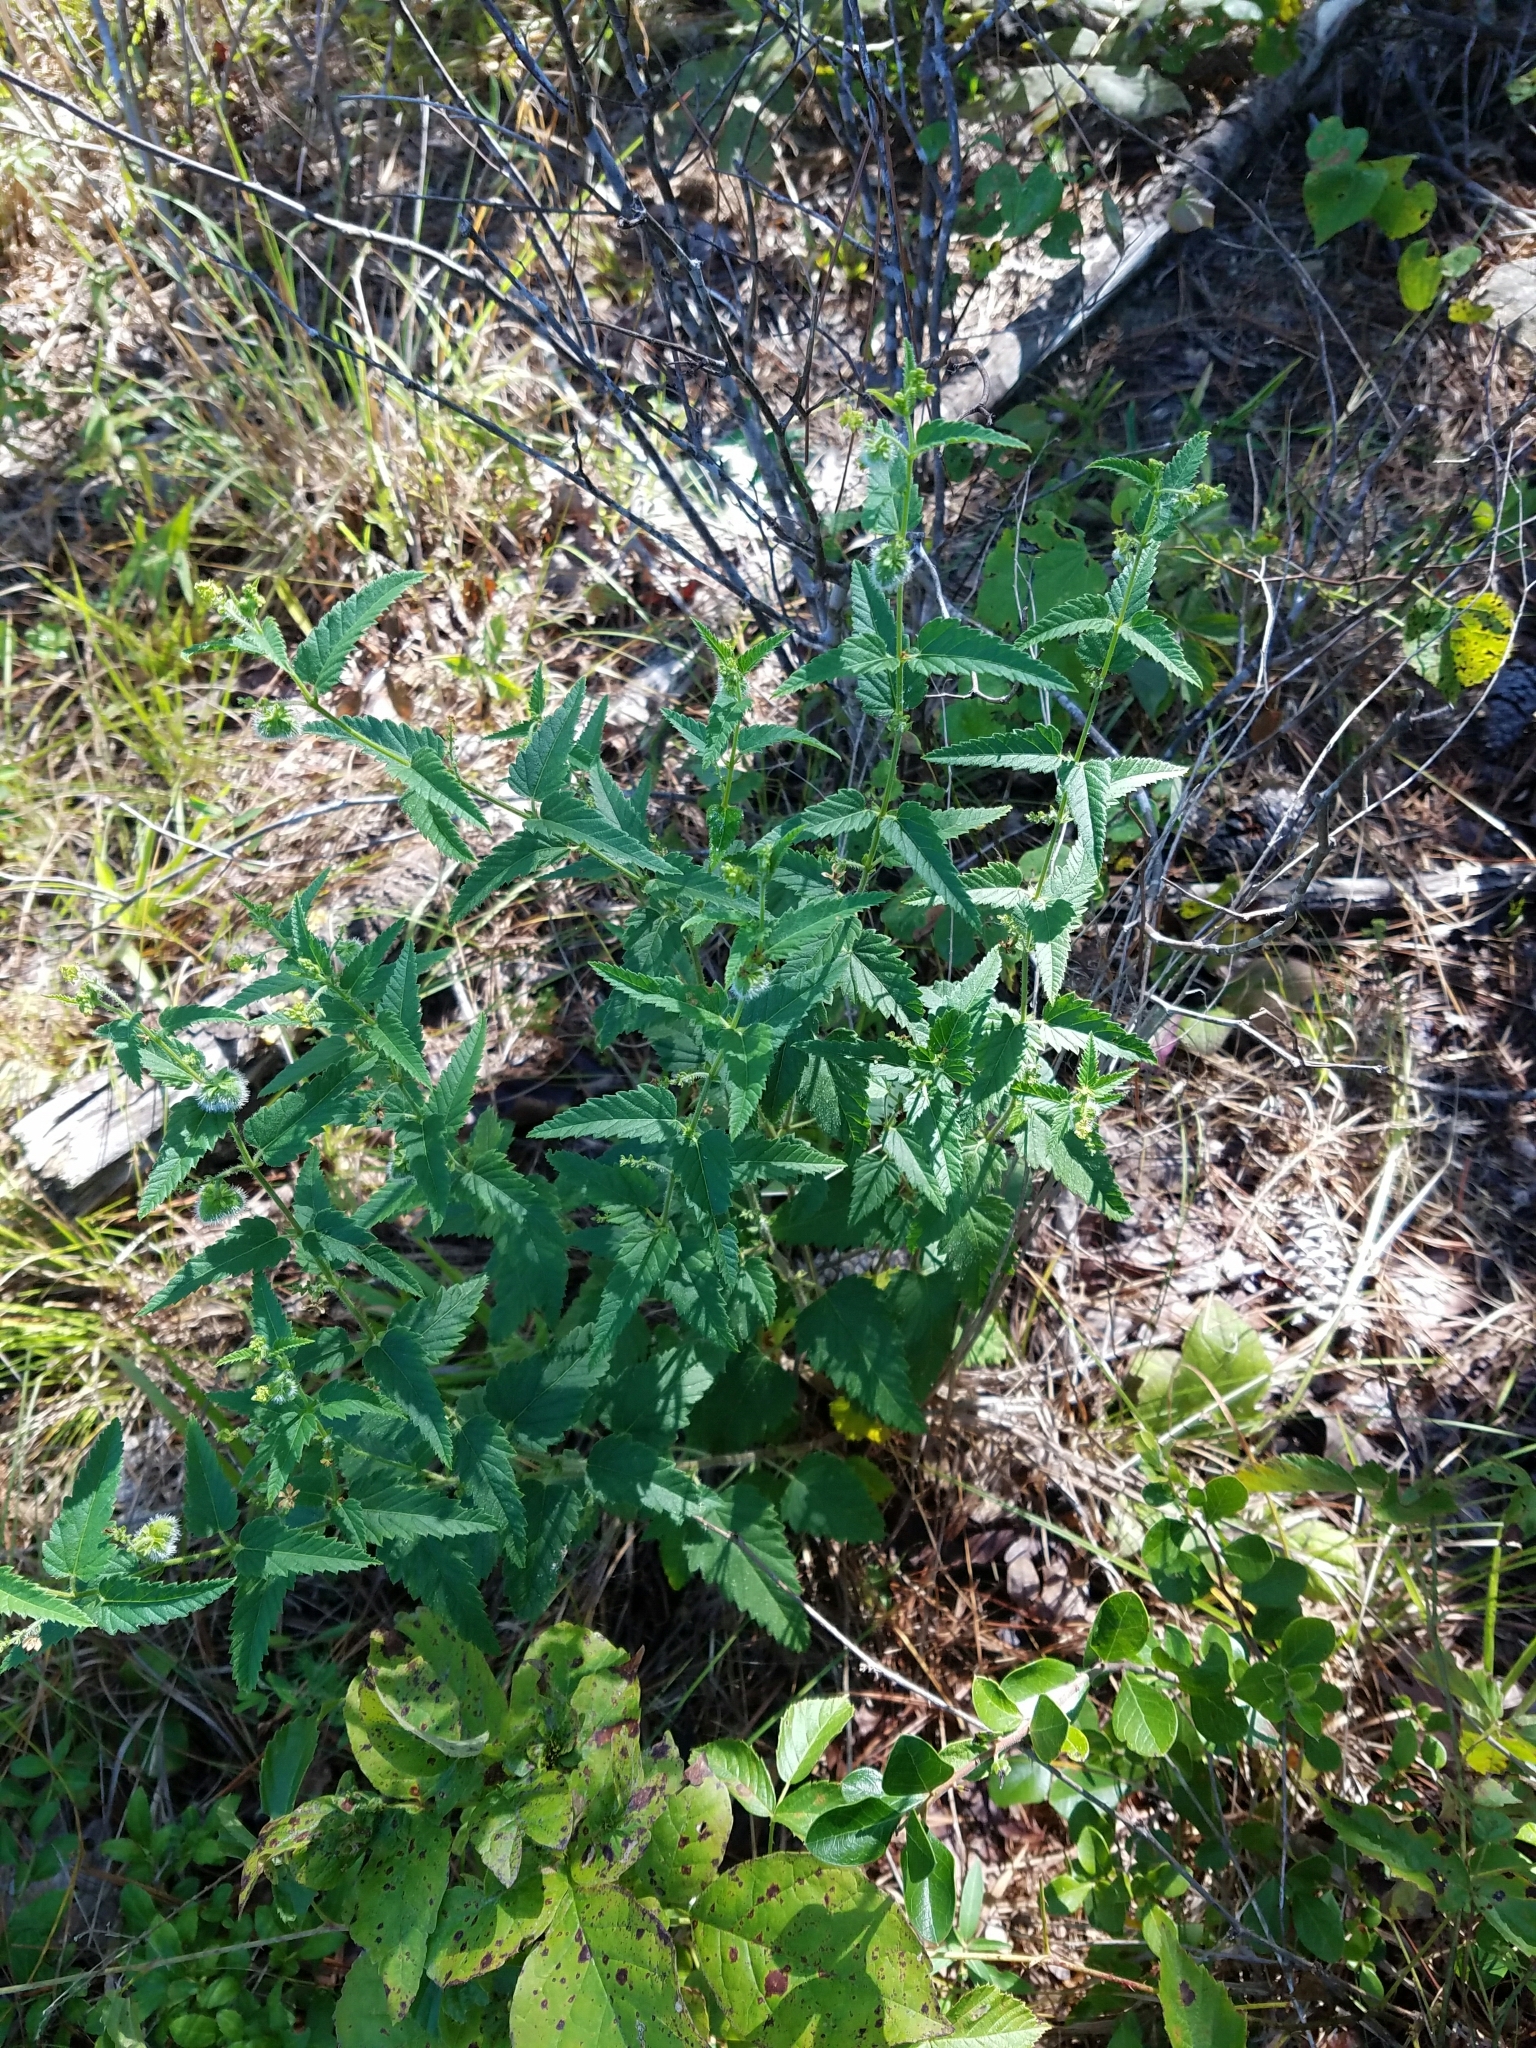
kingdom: Plantae
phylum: Tracheophyta
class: Magnoliopsida
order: Malpighiales
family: Euphorbiaceae
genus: Tragia
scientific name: Tragia urticifolia
